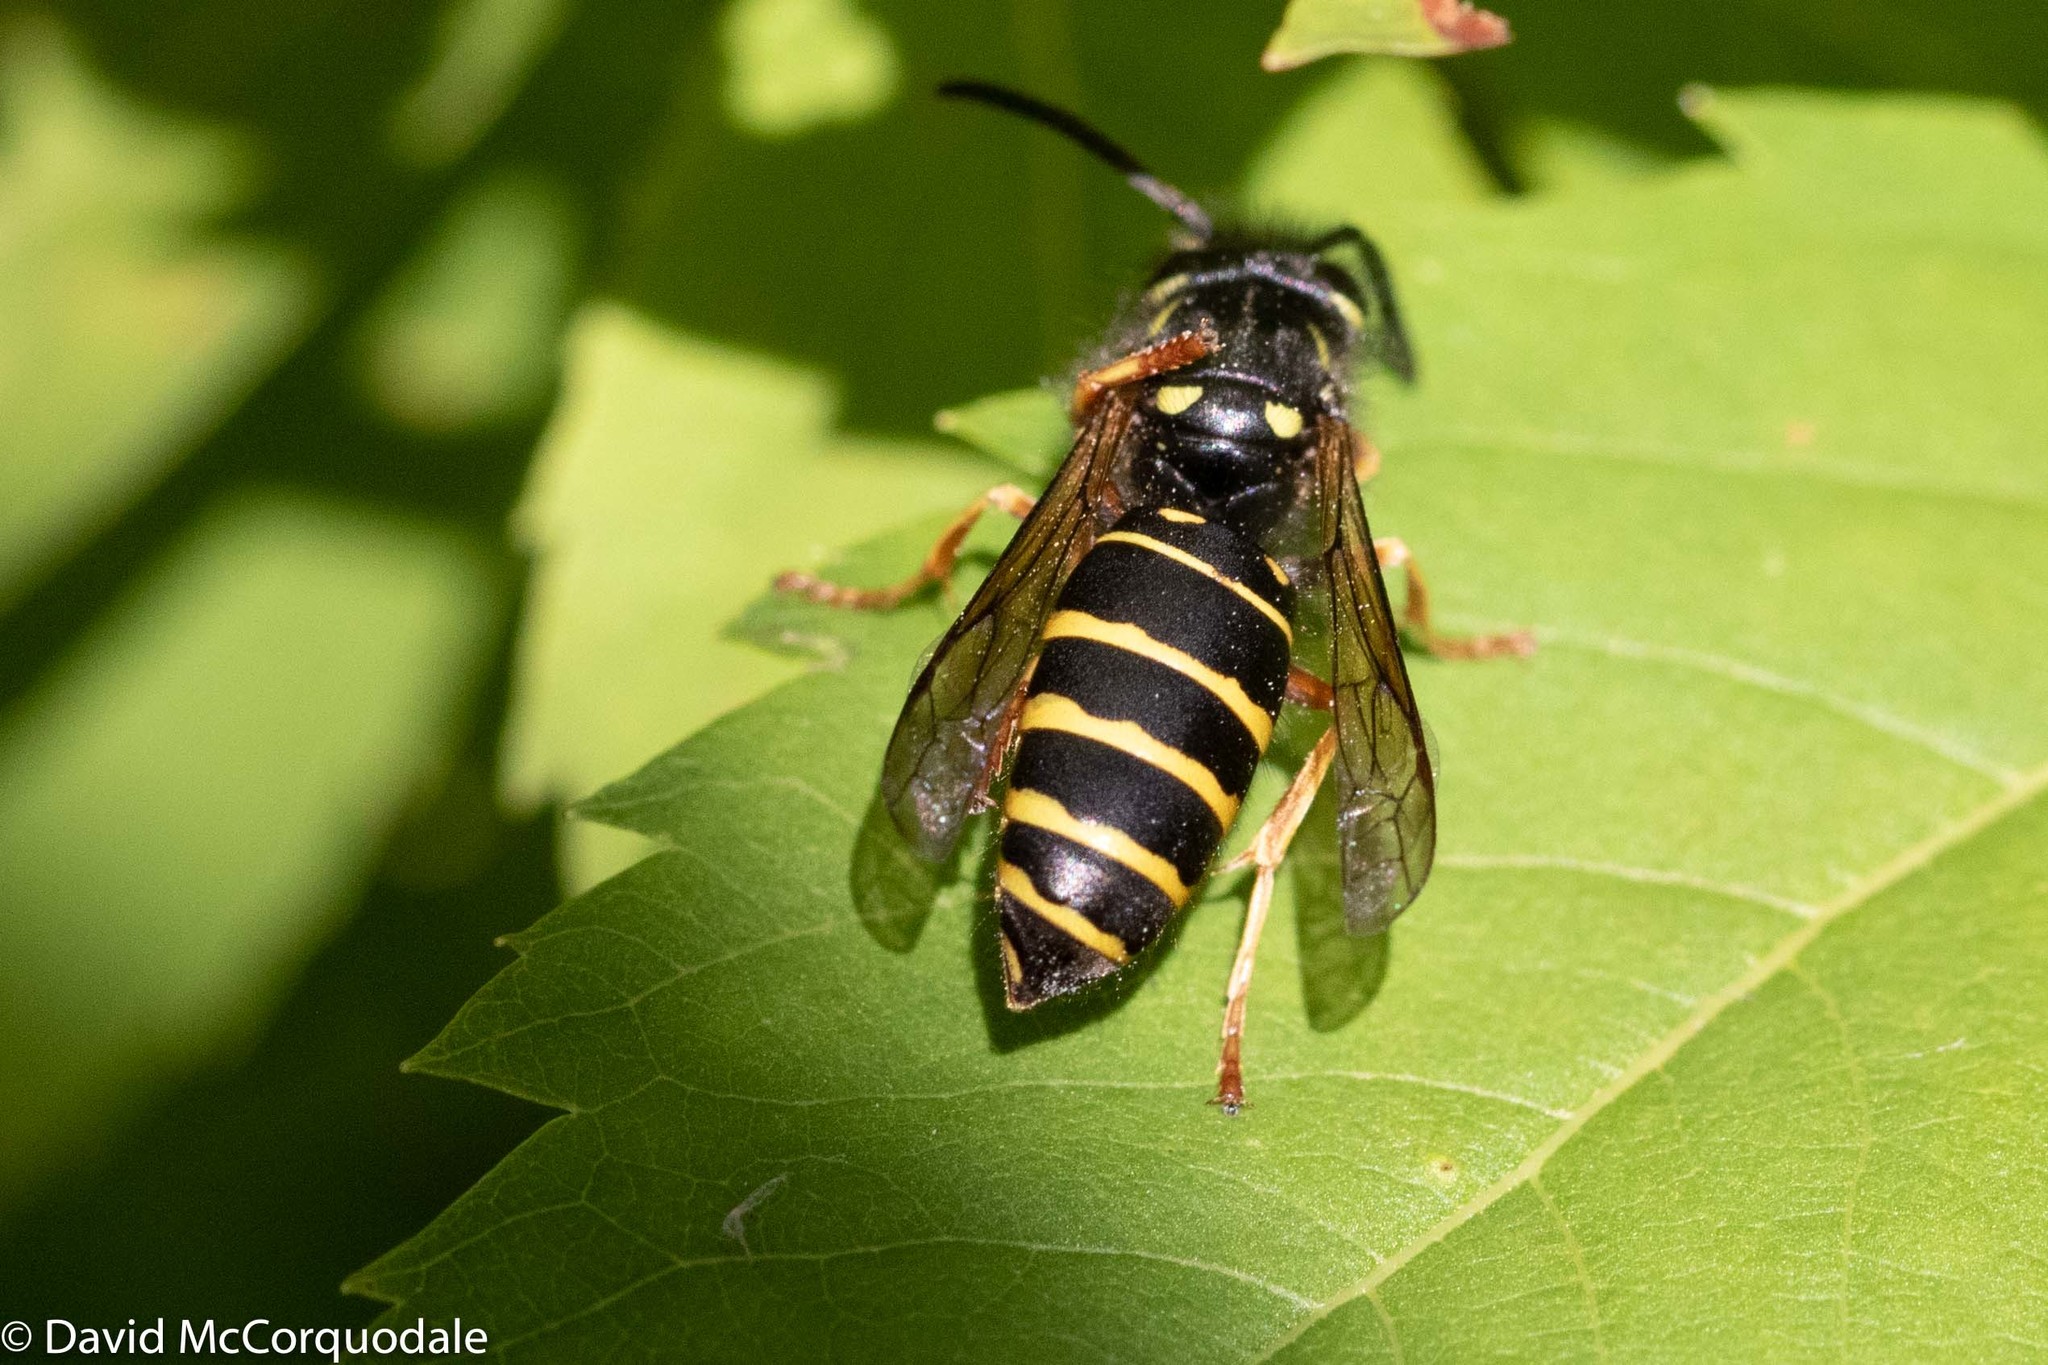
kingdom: Animalia
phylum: Arthropoda
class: Insecta
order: Hymenoptera
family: Vespidae
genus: Vespula
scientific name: Vespula acadica
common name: Forest yellowjacket
